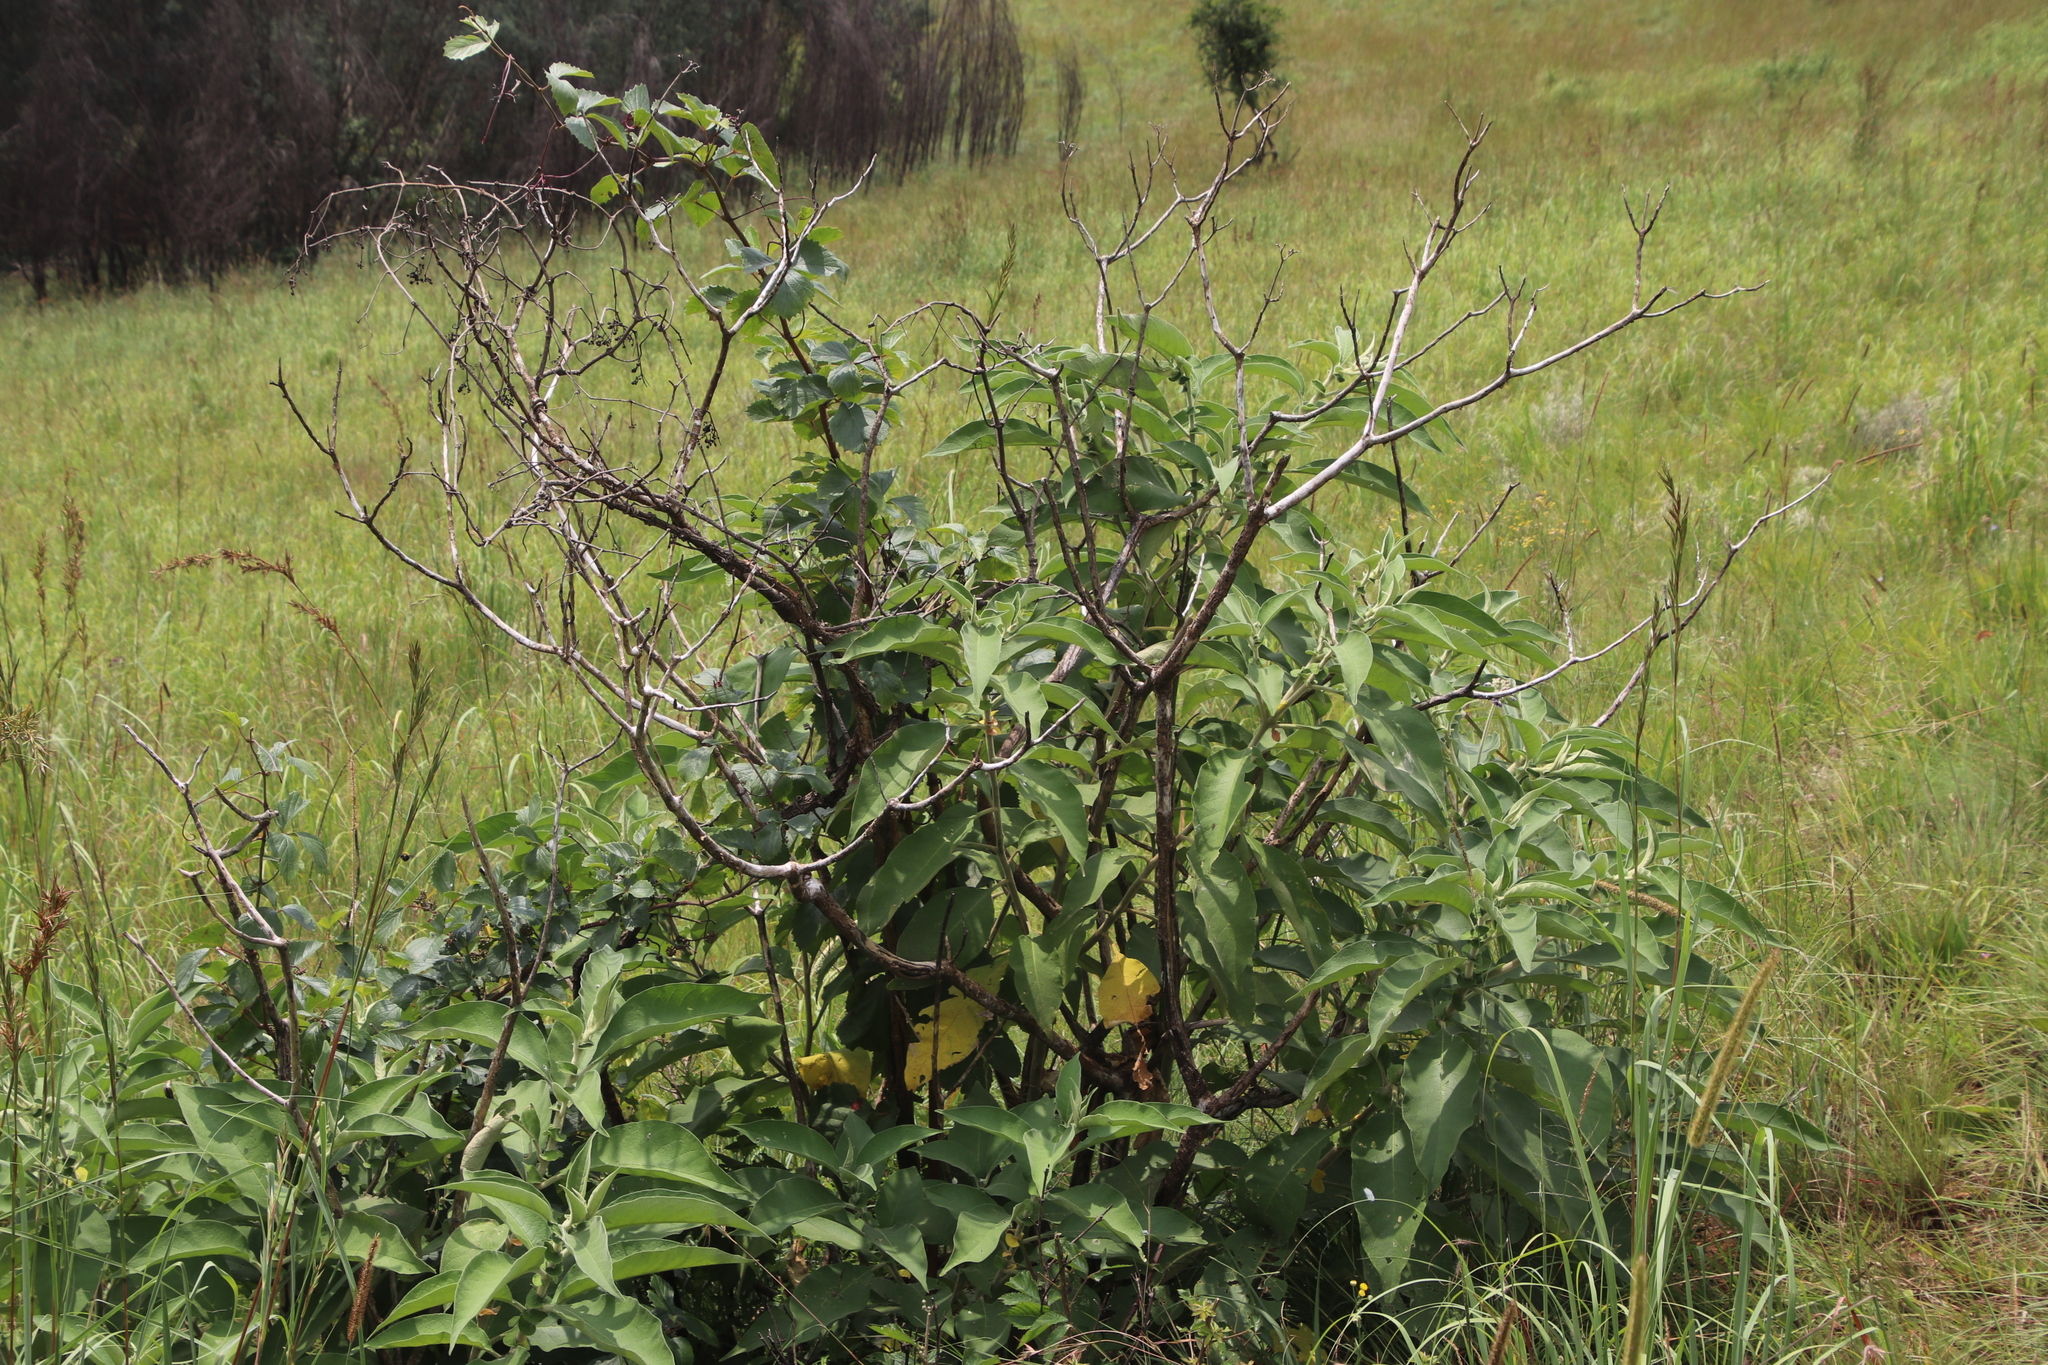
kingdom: Plantae
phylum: Tracheophyta
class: Magnoliopsida
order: Solanales
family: Solanaceae
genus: Solanum
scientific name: Solanum mauritianum
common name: Earleaf nightshade
